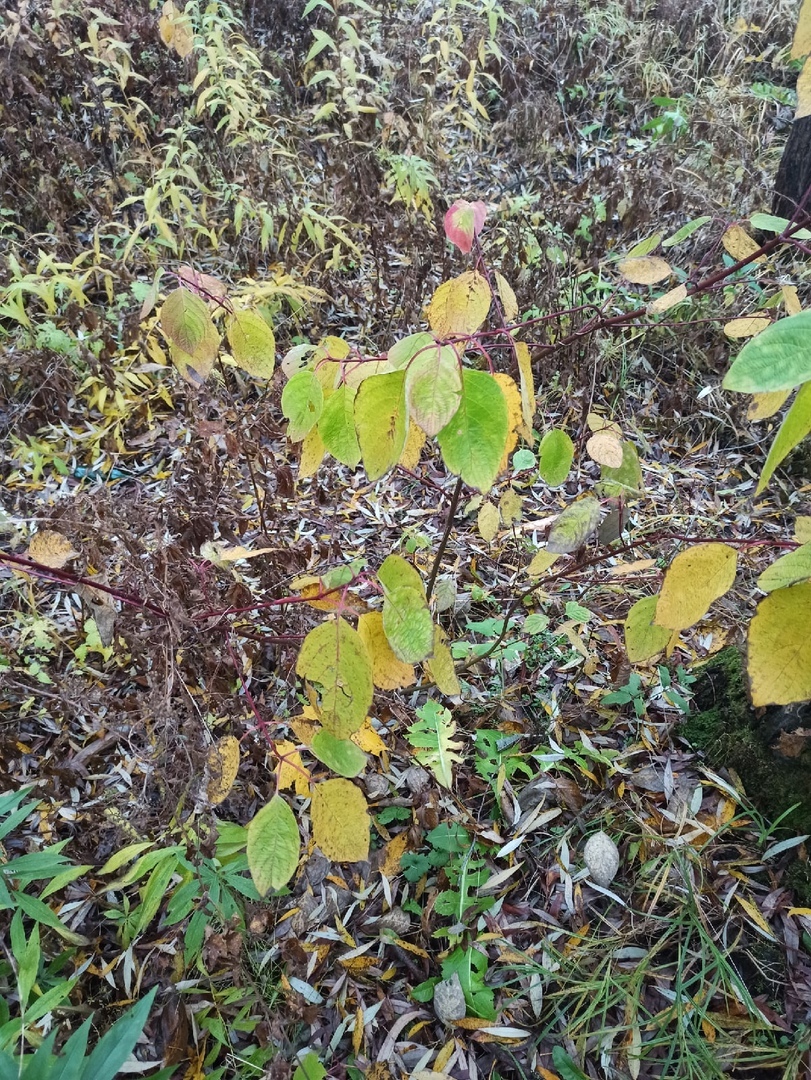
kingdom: Plantae
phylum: Tracheophyta
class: Magnoliopsida
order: Cornales
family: Cornaceae
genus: Cornus
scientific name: Cornus alba
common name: White dogwood
